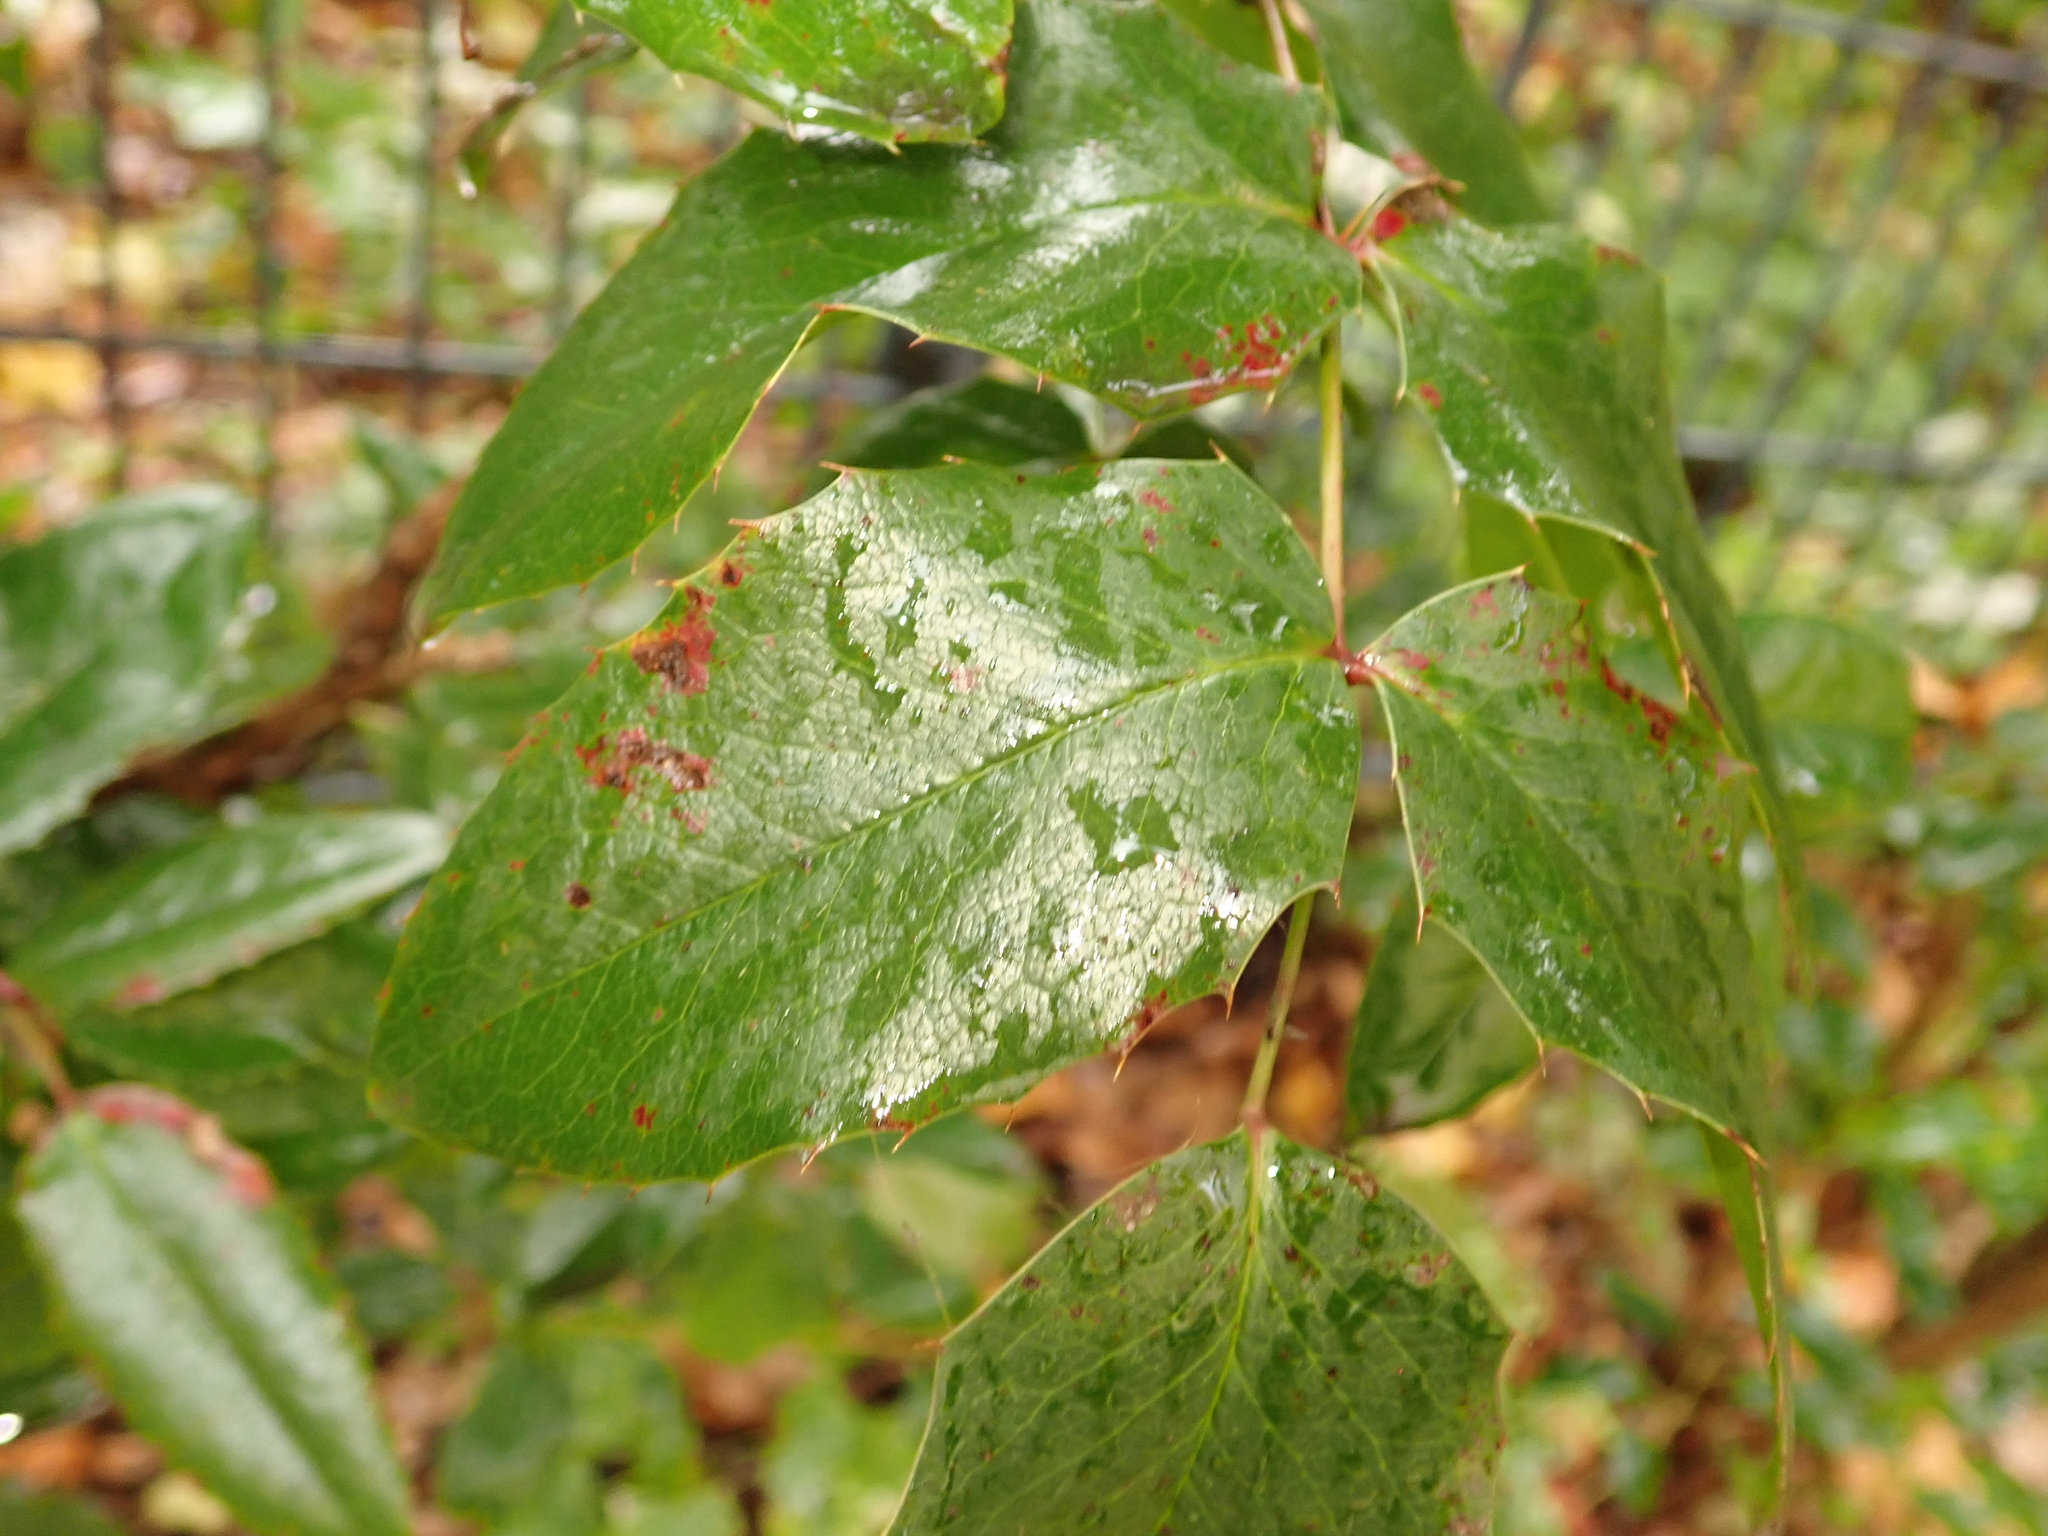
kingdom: Plantae
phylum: Tracheophyta
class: Magnoliopsida
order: Ranunculales
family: Berberidaceae
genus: Mahonia
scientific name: Mahonia aquifolium
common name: Oregon-grape
